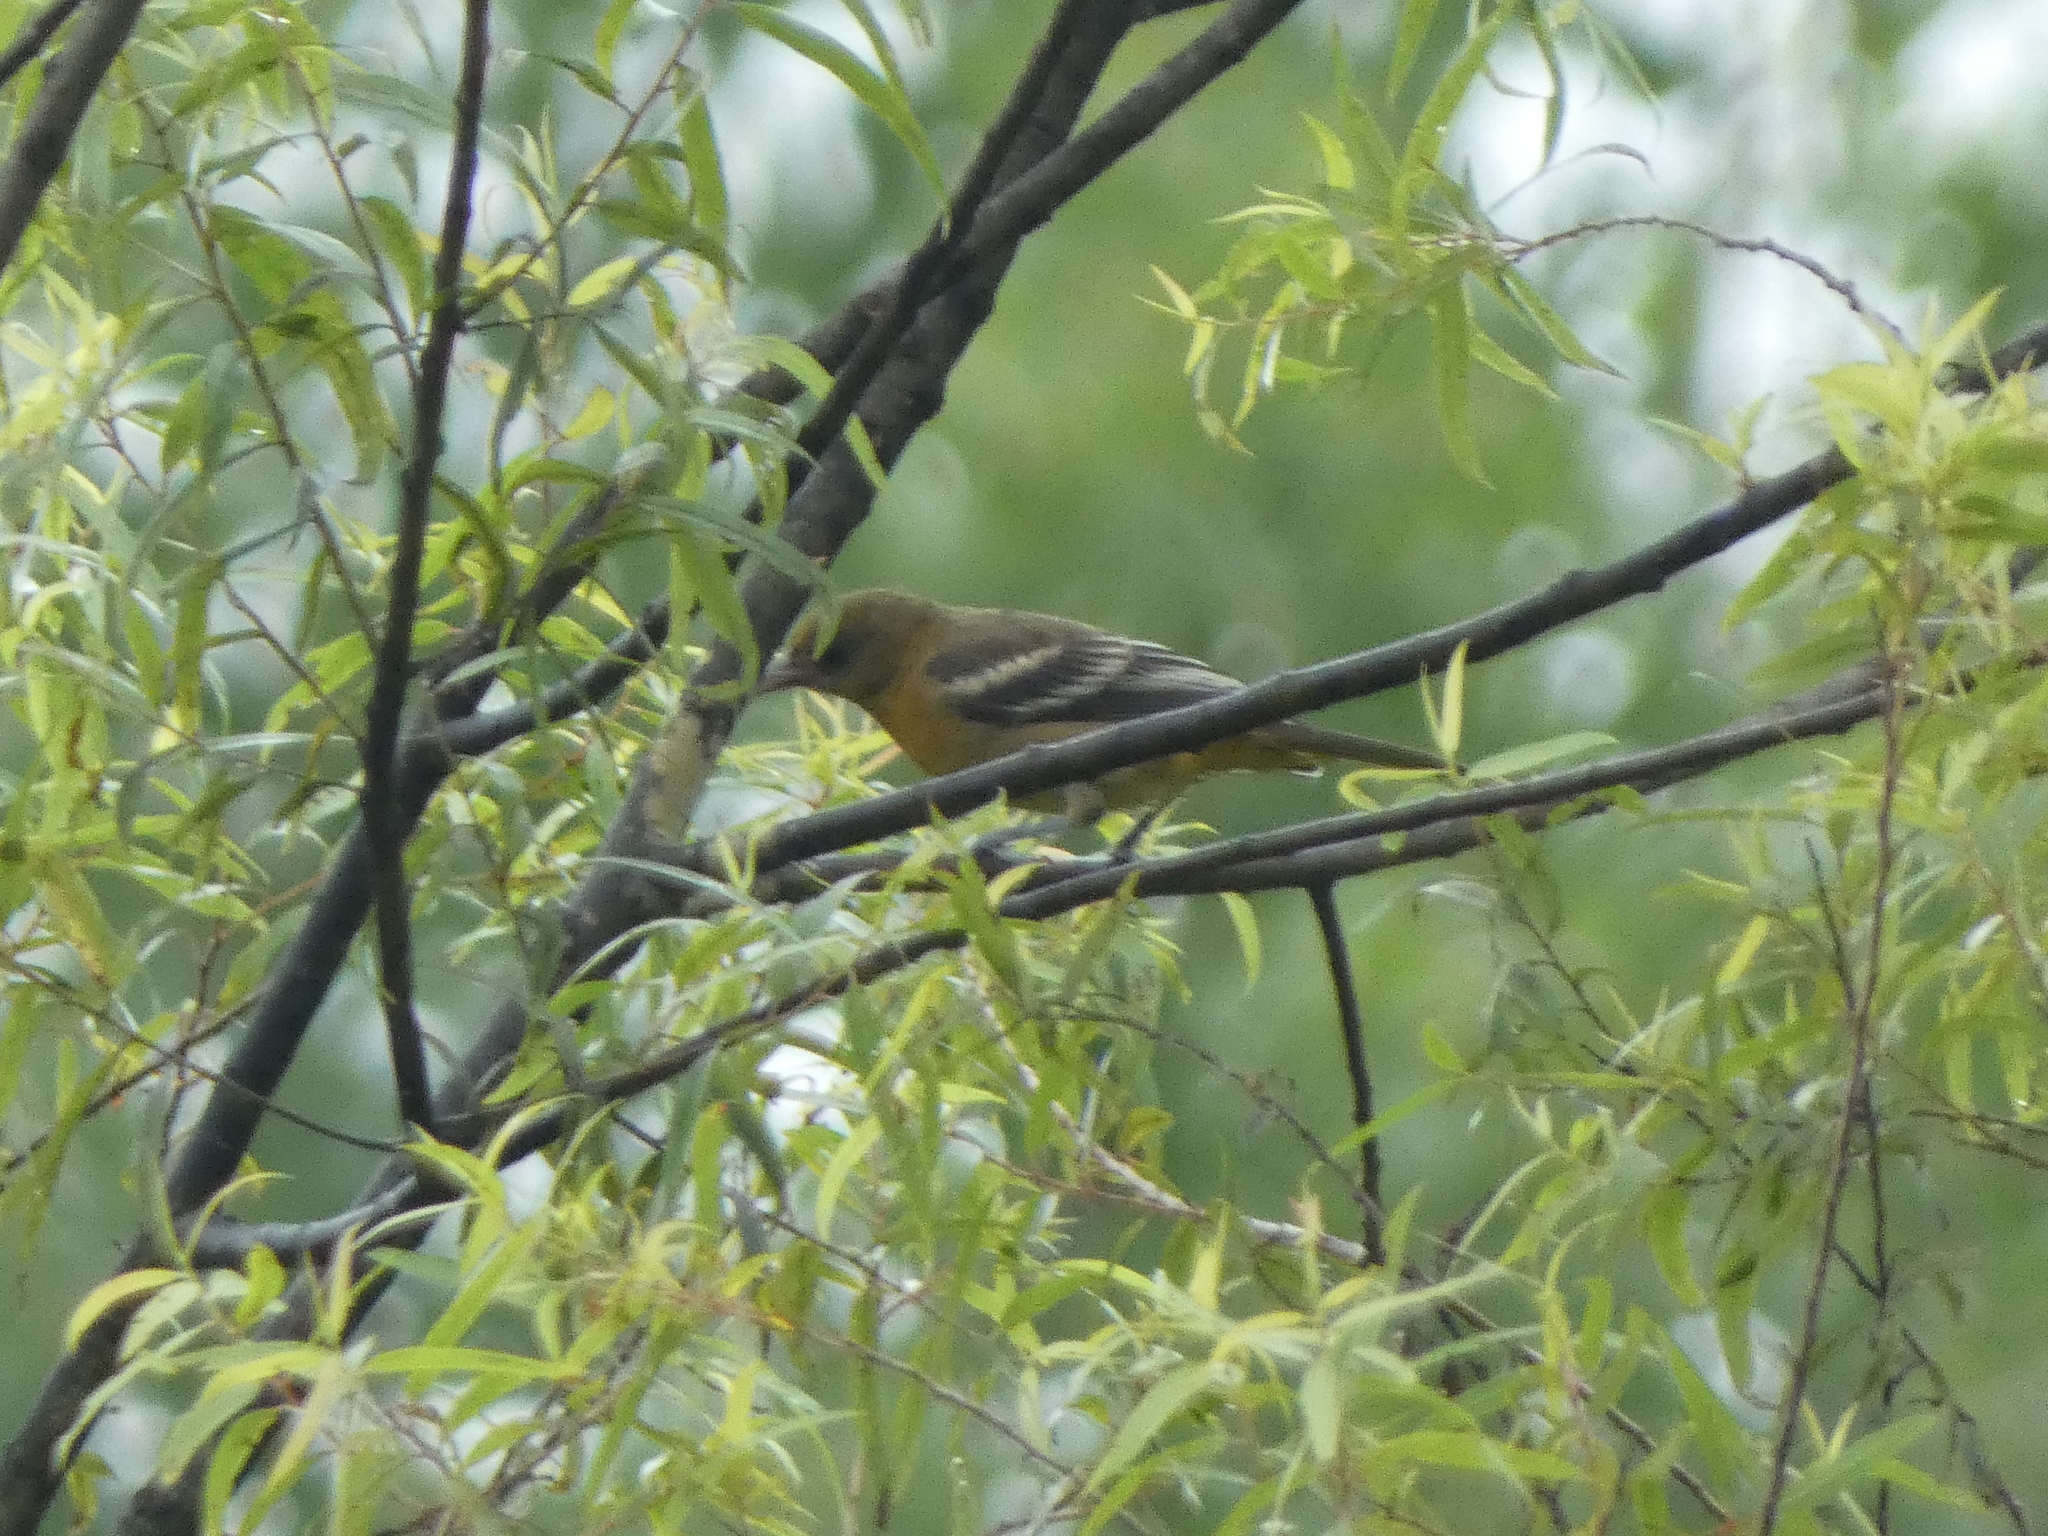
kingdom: Animalia
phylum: Chordata
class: Aves
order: Passeriformes
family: Icteridae
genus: Icterus
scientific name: Icterus galbula
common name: Baltimore oriole
